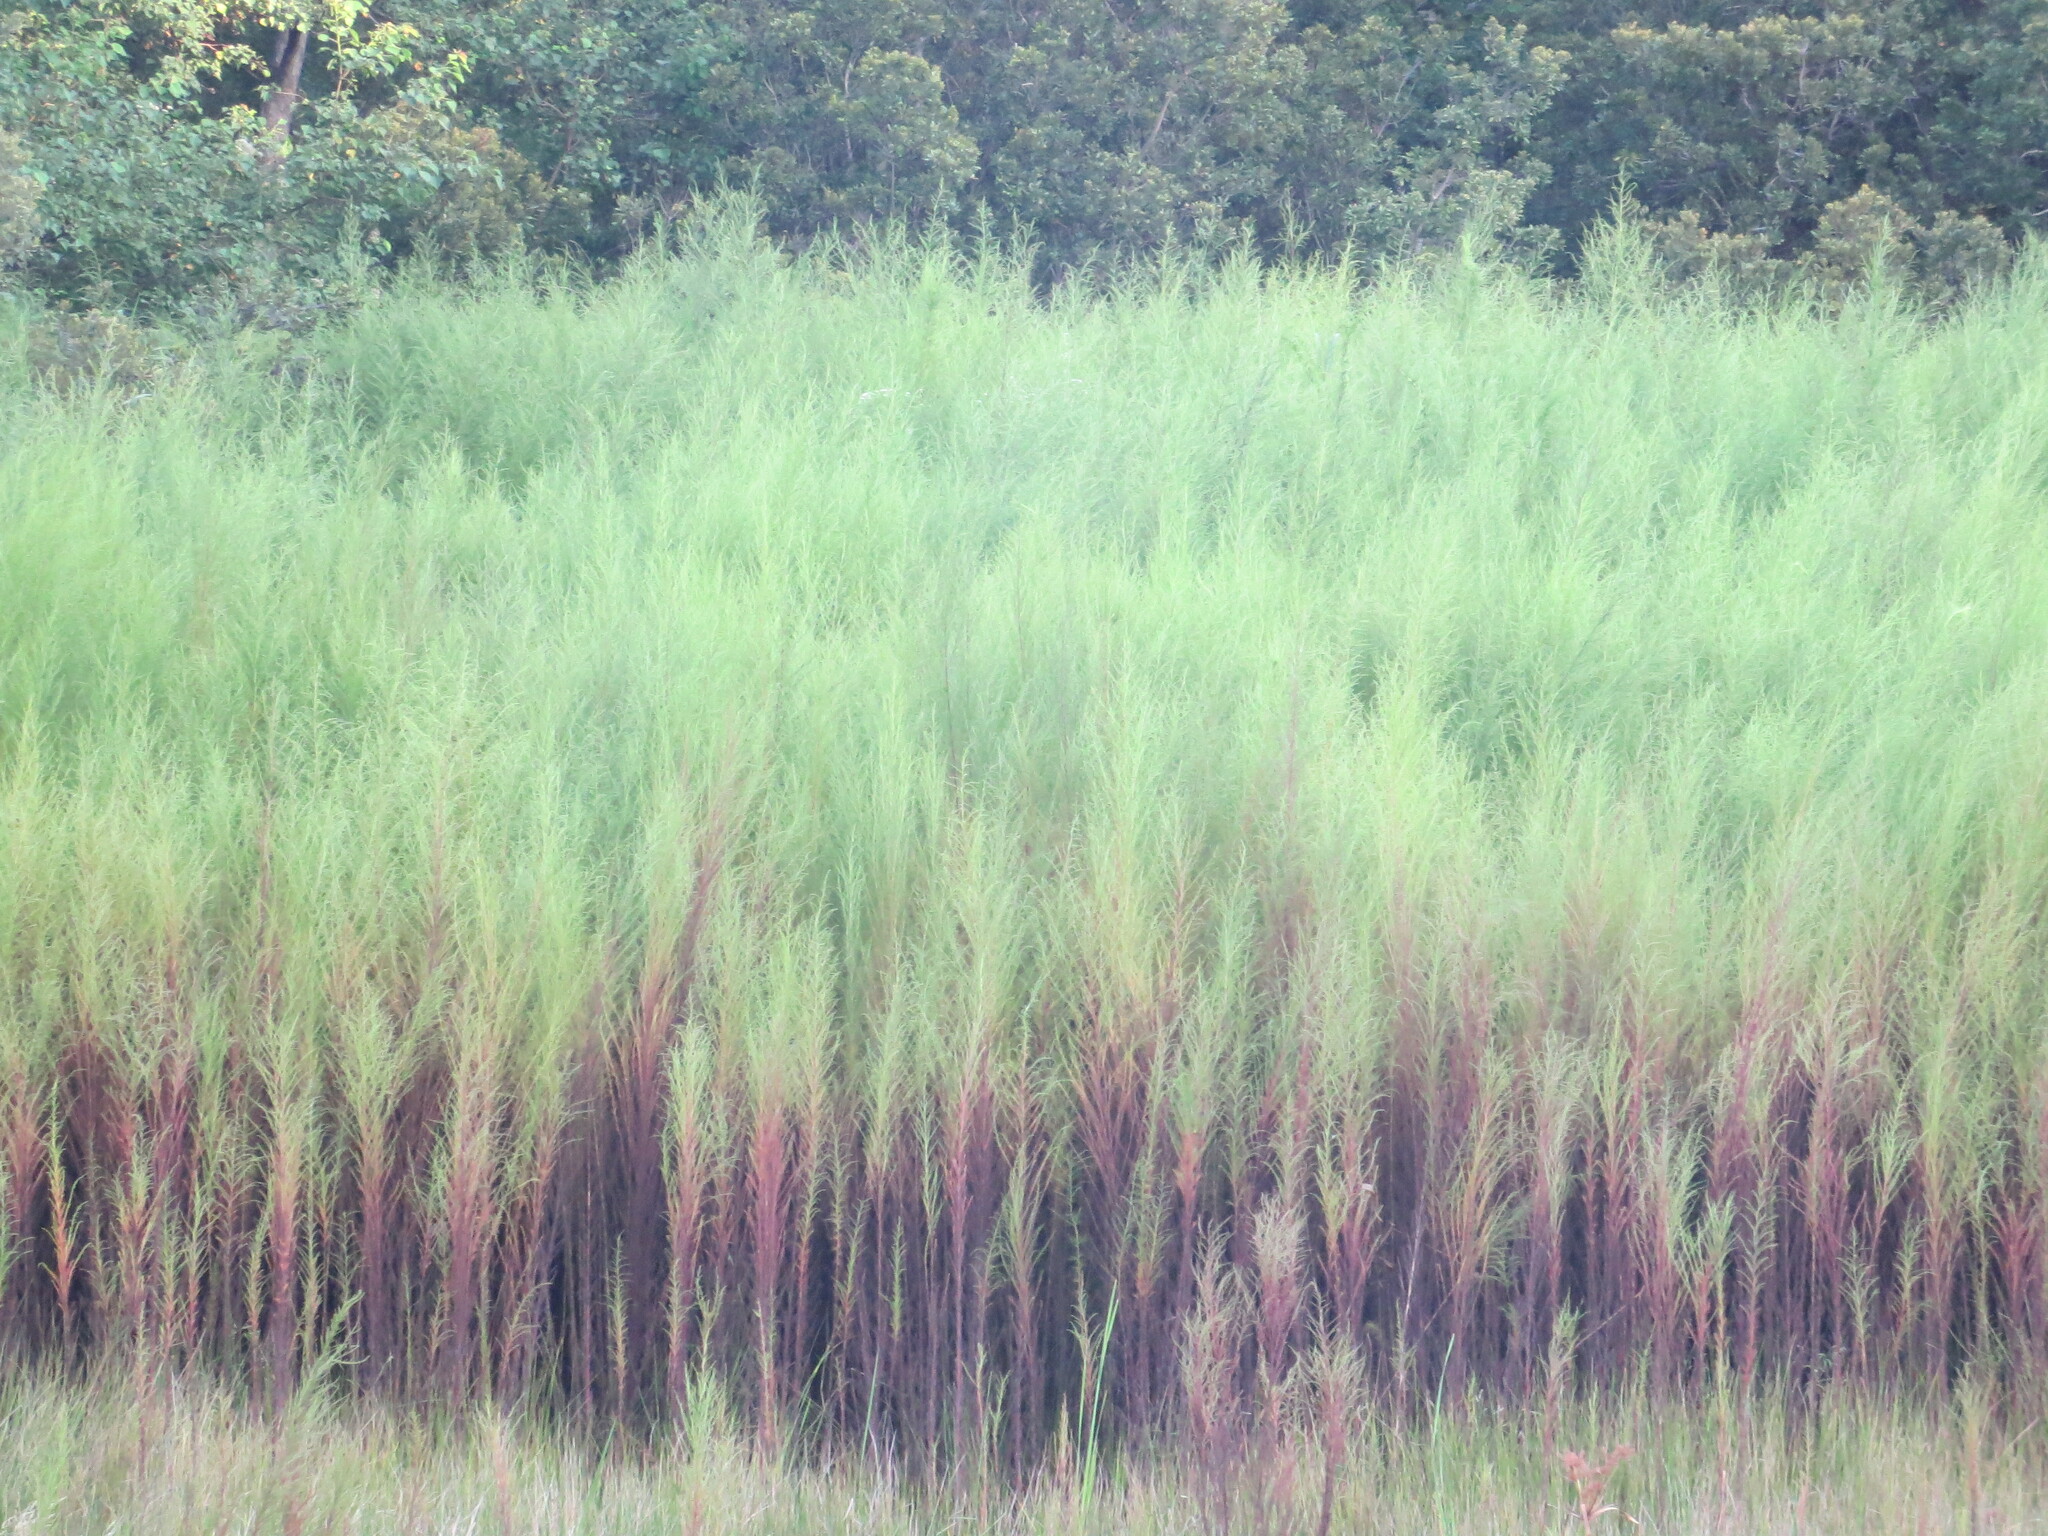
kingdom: Plantae
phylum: Tracheophyta
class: Magnoliopsida
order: Asterales
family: Asteraceae
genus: Eupatorium
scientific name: Eupatorium capillifolium
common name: Dog-fennel
